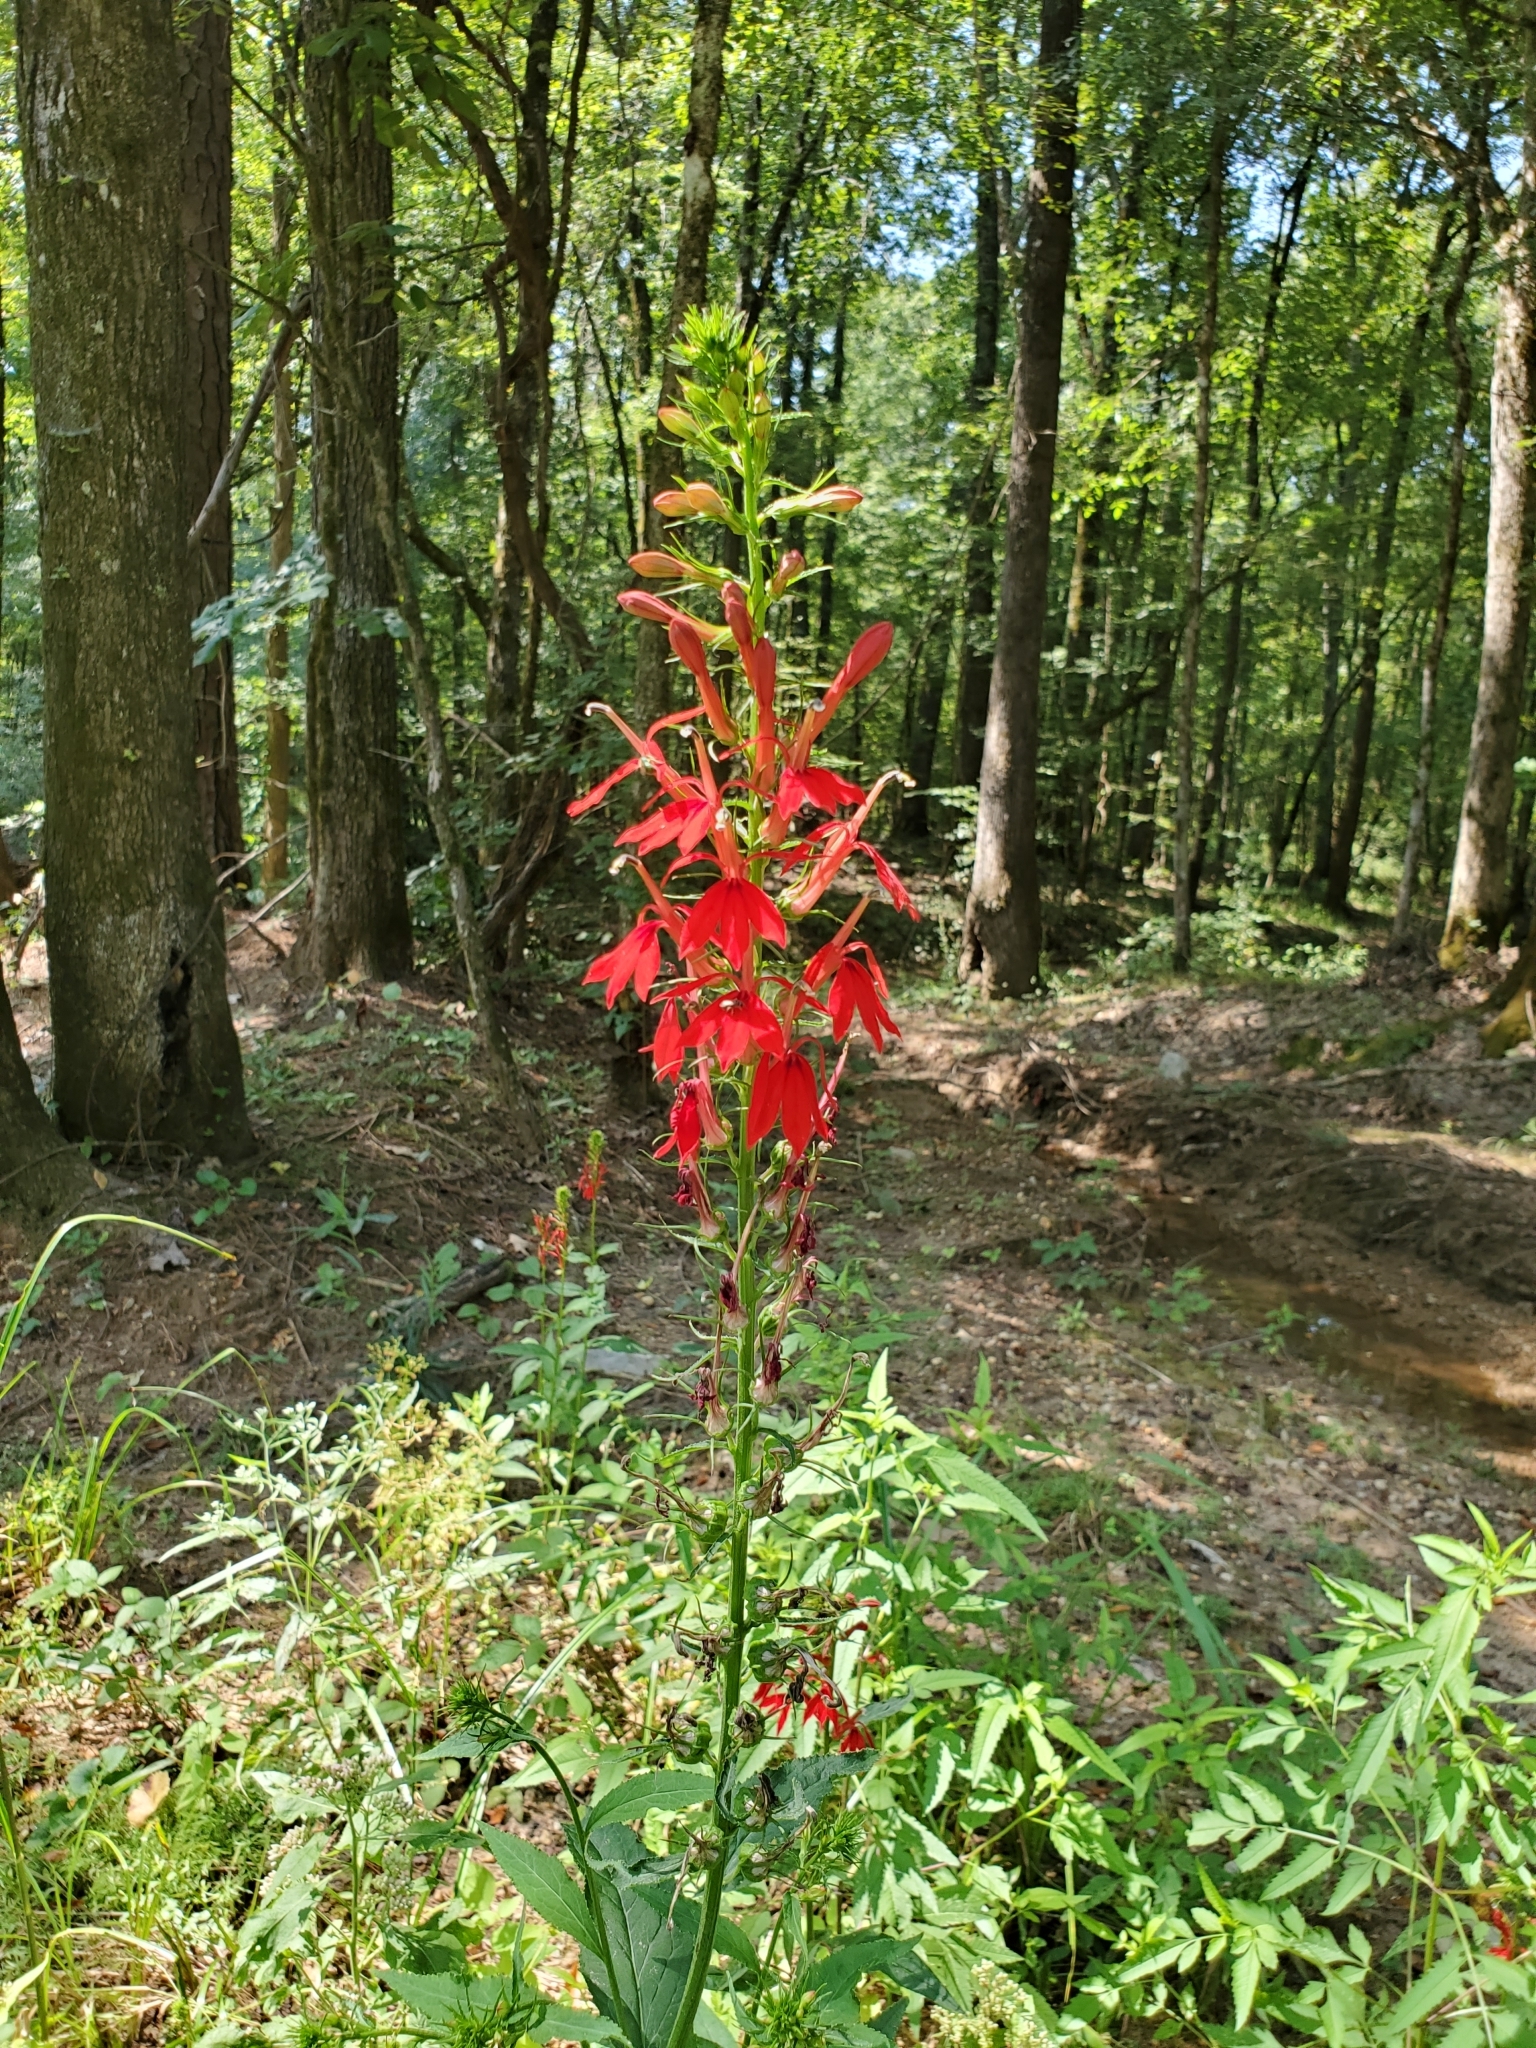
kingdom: Plantae
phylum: Tracheophyta
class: Magnoliopsida
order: Asterales
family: Campanulaceae
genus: Lobelia
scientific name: Lobelia cardinalis
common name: Cardinal flower
